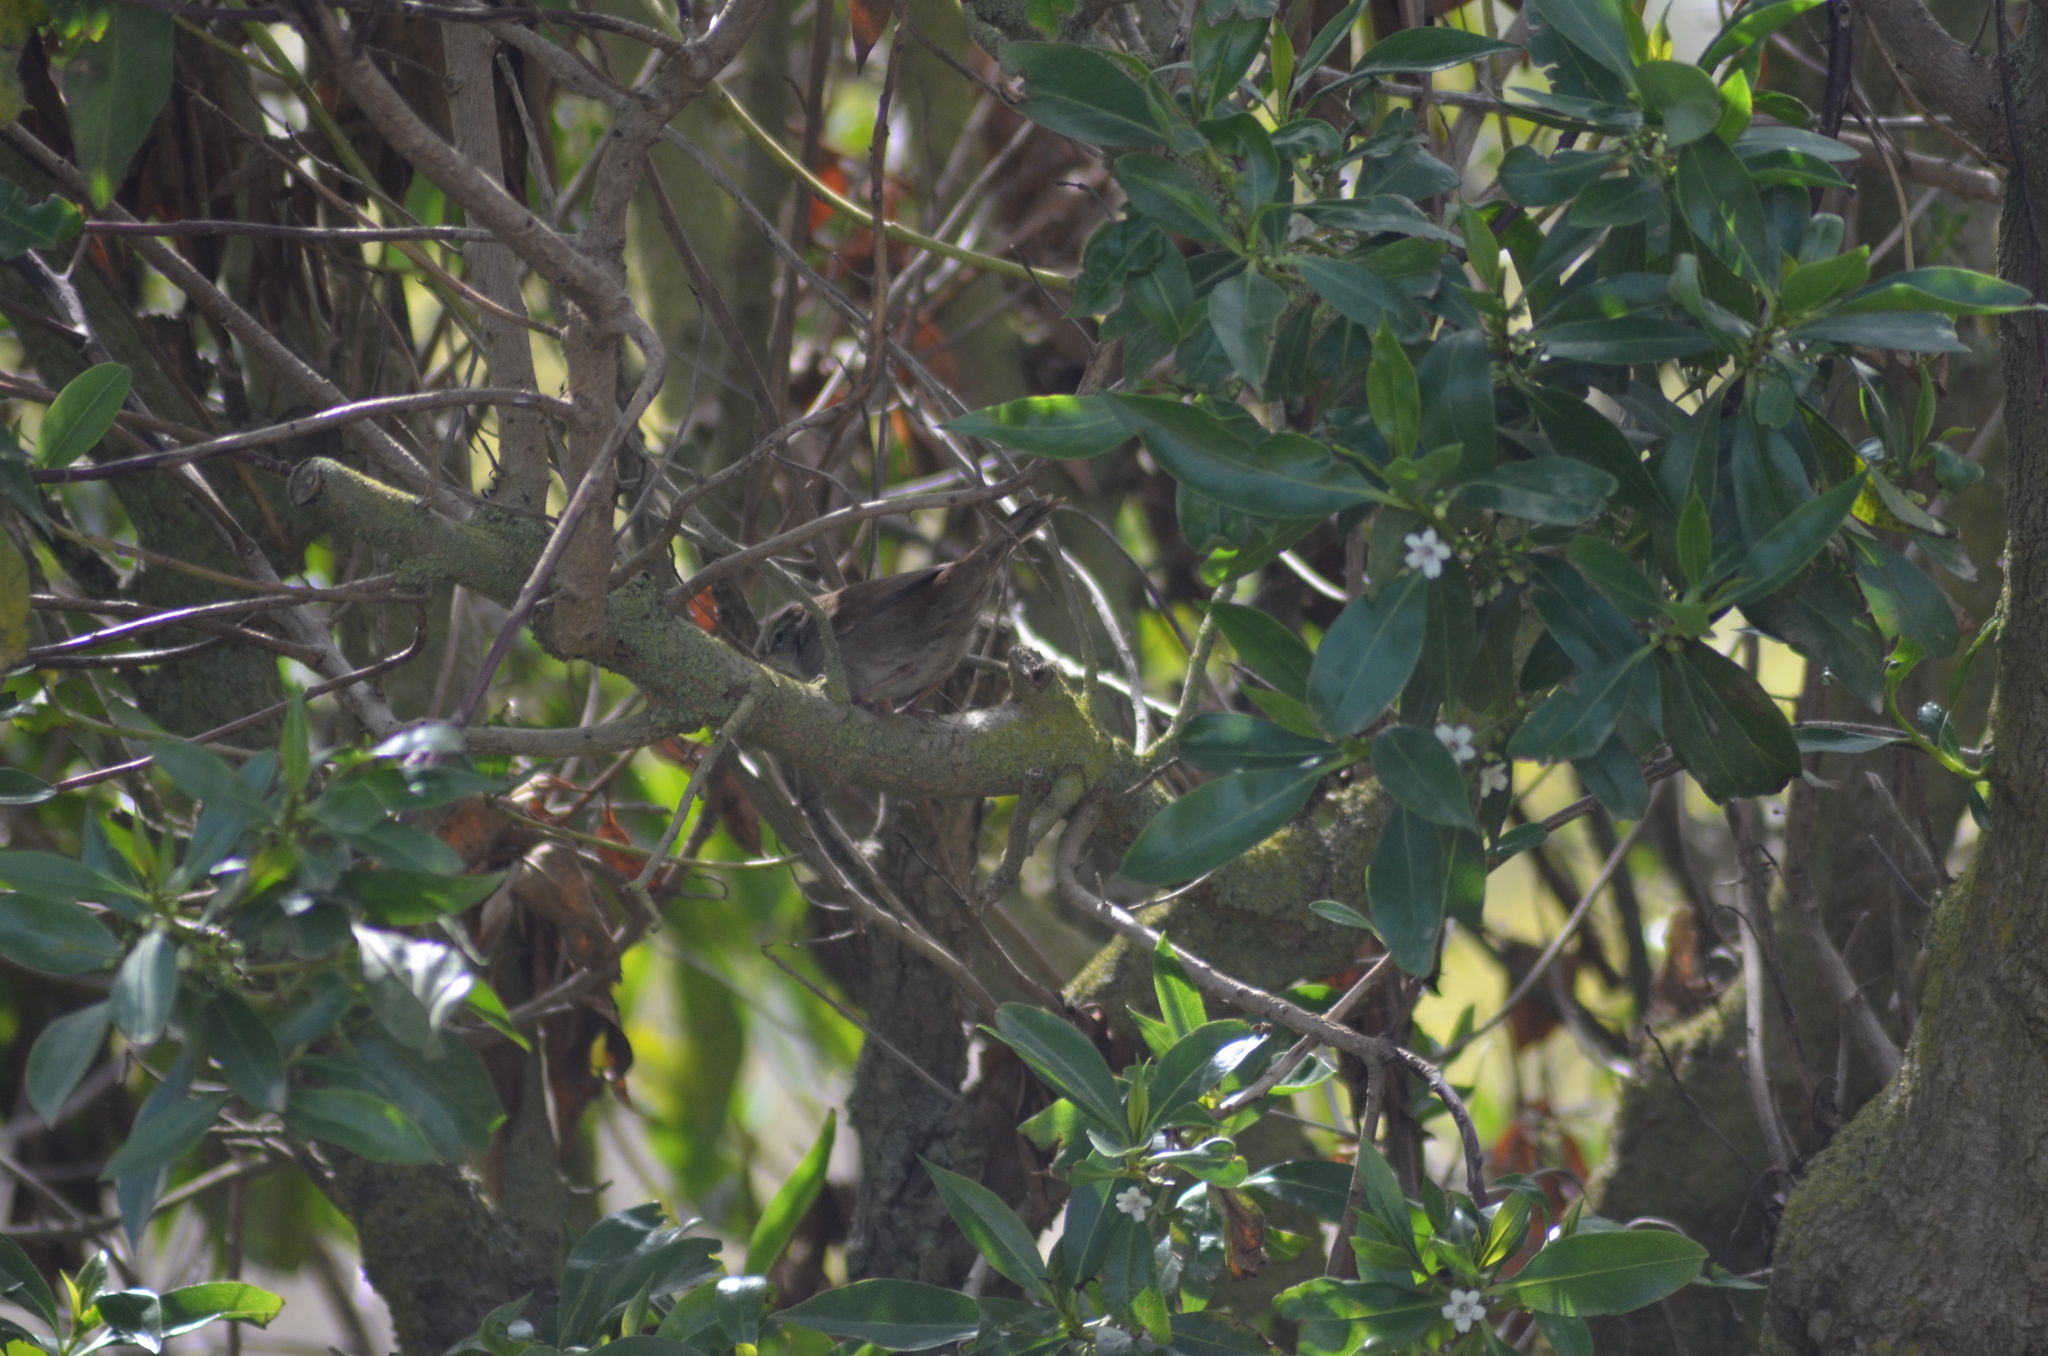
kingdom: Animalia
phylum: Chordata
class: Aves
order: Passeriformes
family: Cettiidae
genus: Cettia
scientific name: Cettia cetti
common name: Cetti's warbler
